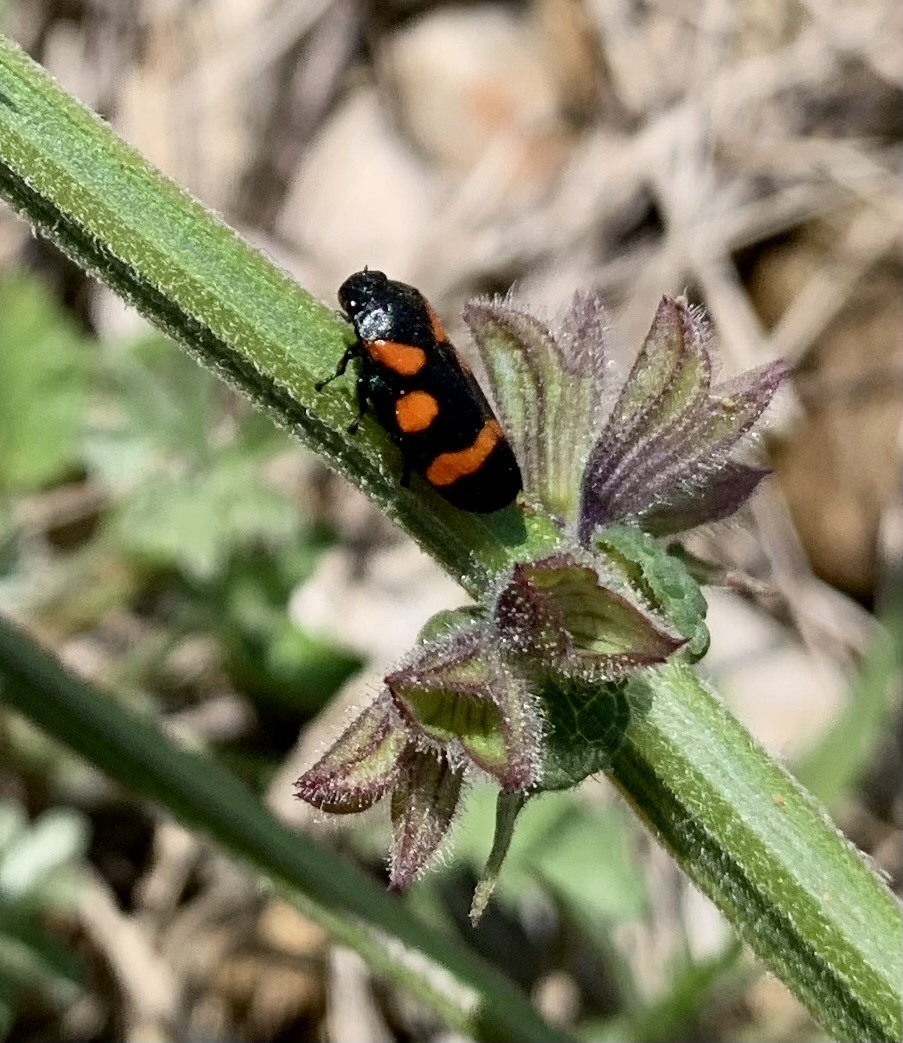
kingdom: Animalia
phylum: Arthropoda
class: Insecta
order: Hemiptera
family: Cercopidae
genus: Cercopis
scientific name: Cercopis sanguinolenta
